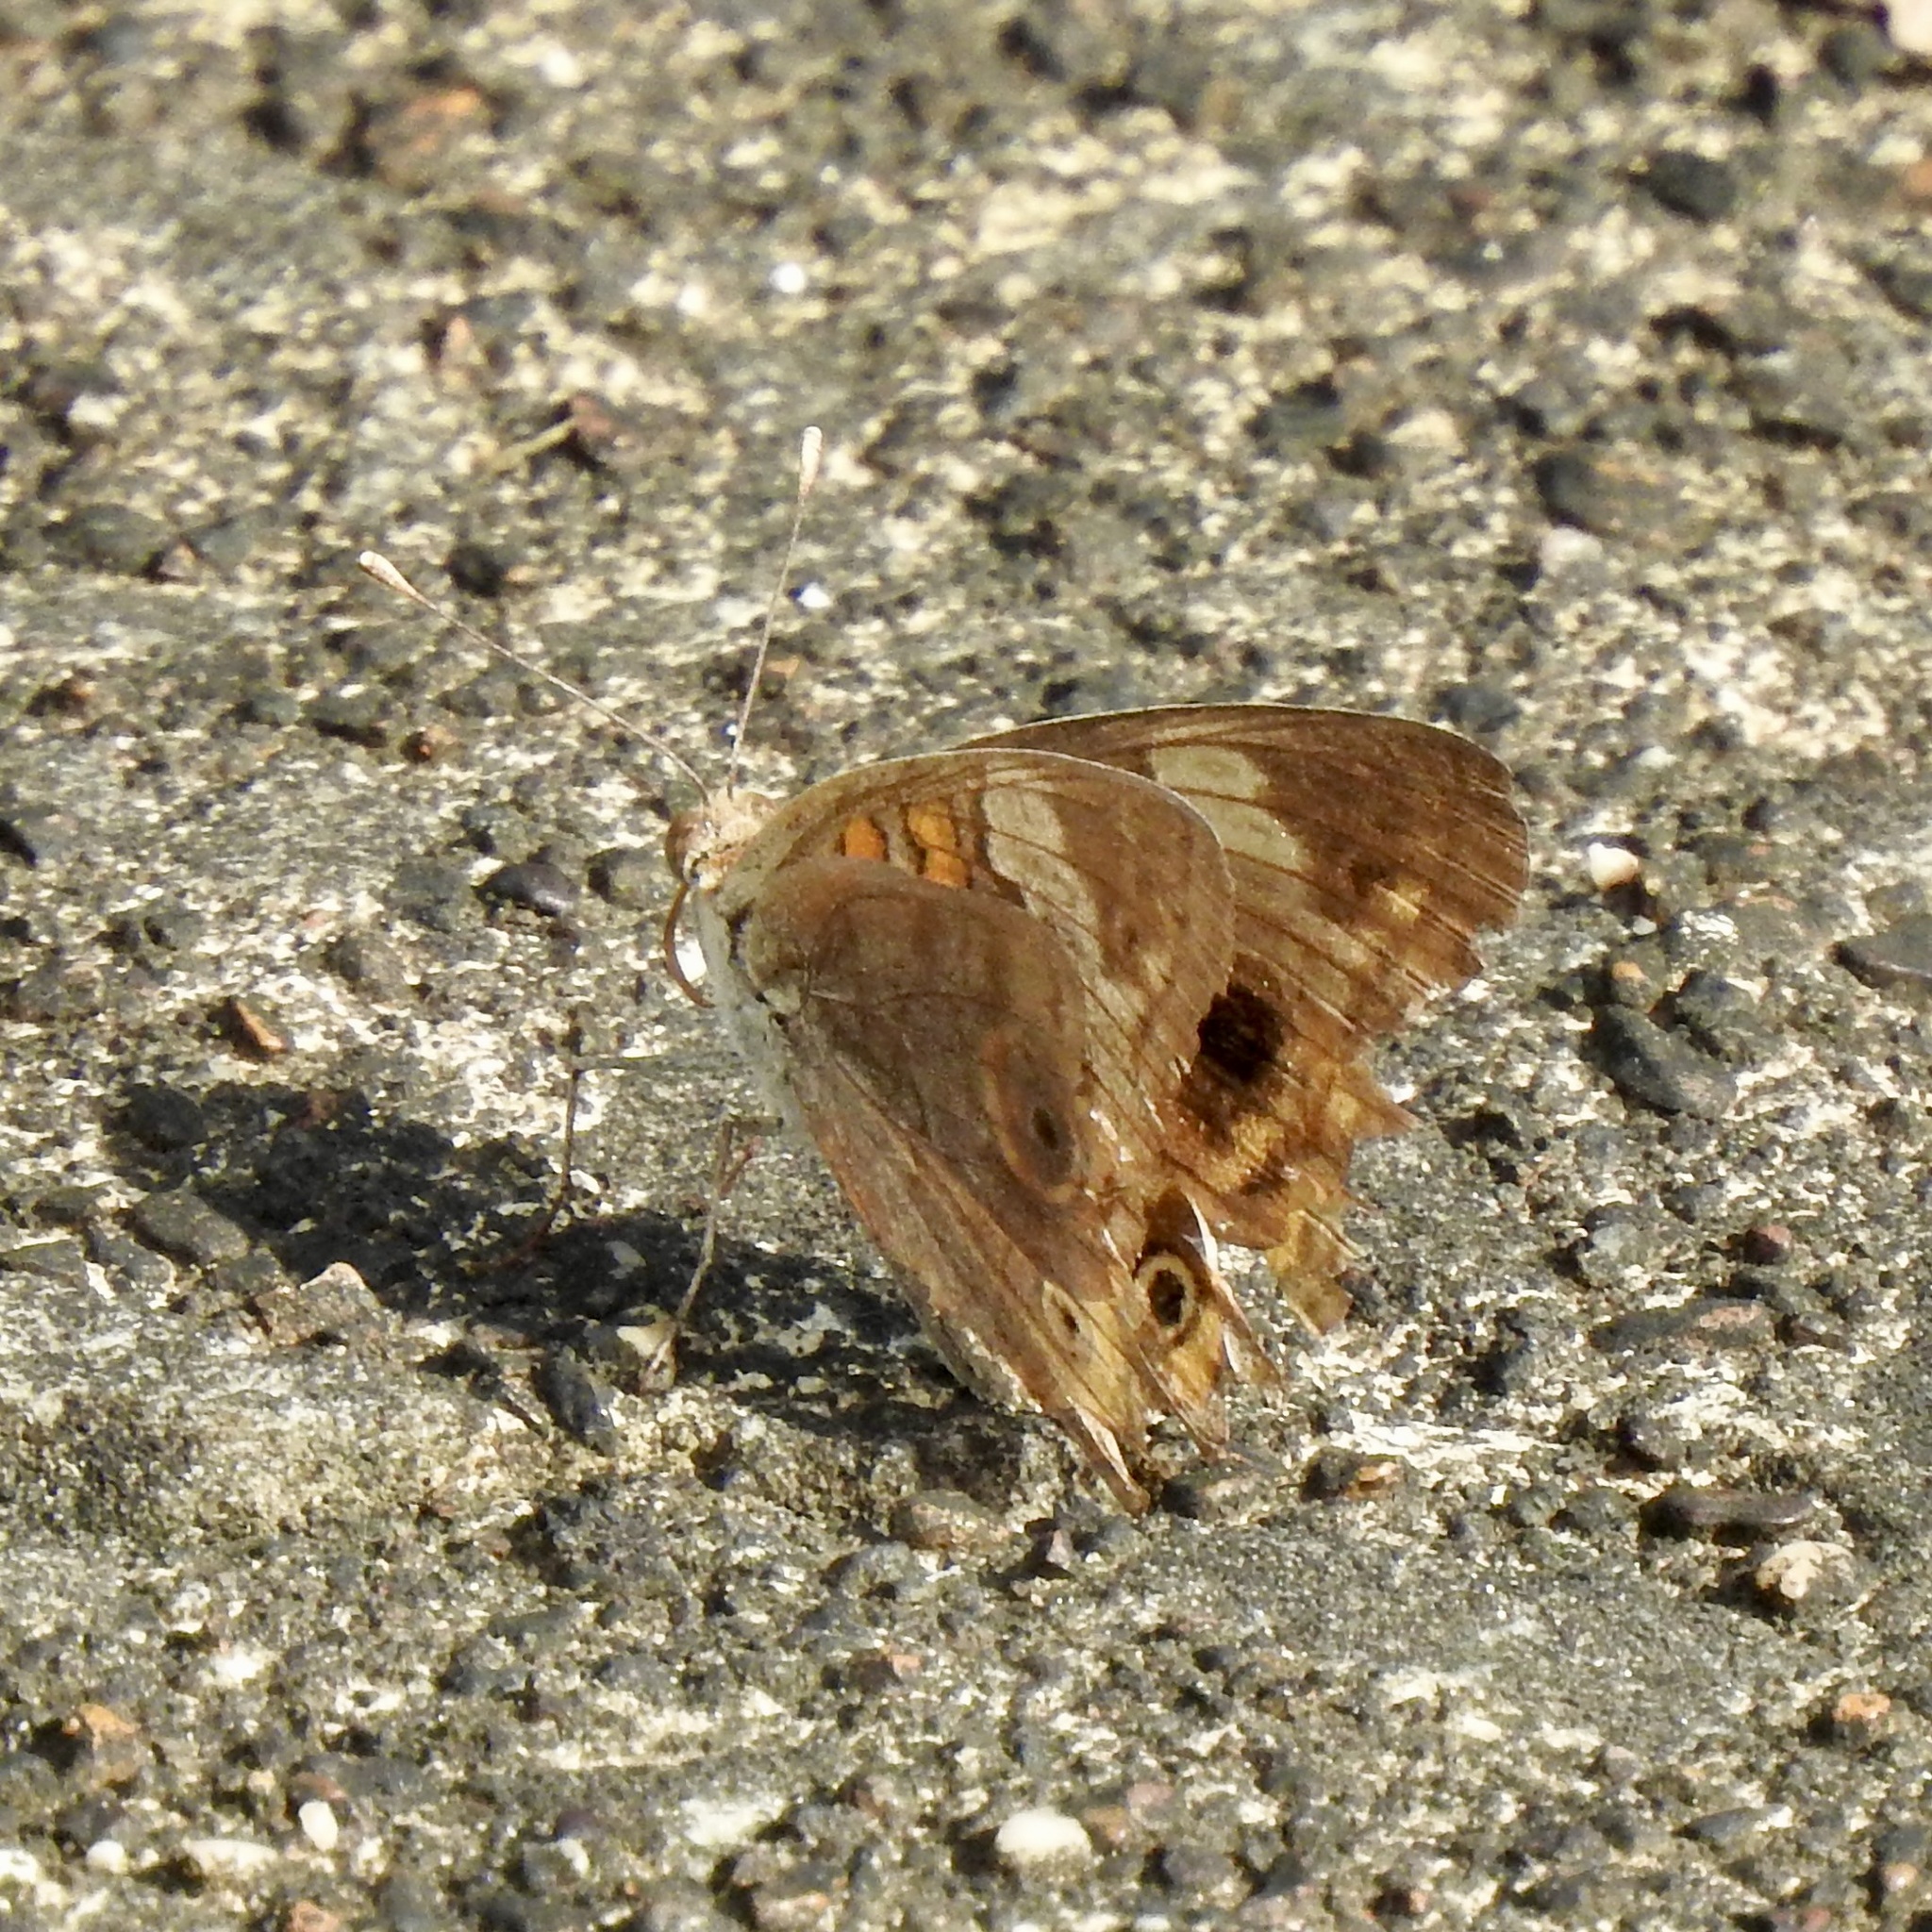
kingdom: Animalia
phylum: Arthropoda
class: Insecta
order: Lepidoptera
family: Nymphalidae
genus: Junonia
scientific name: Junonia coenia
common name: Common buckeye
